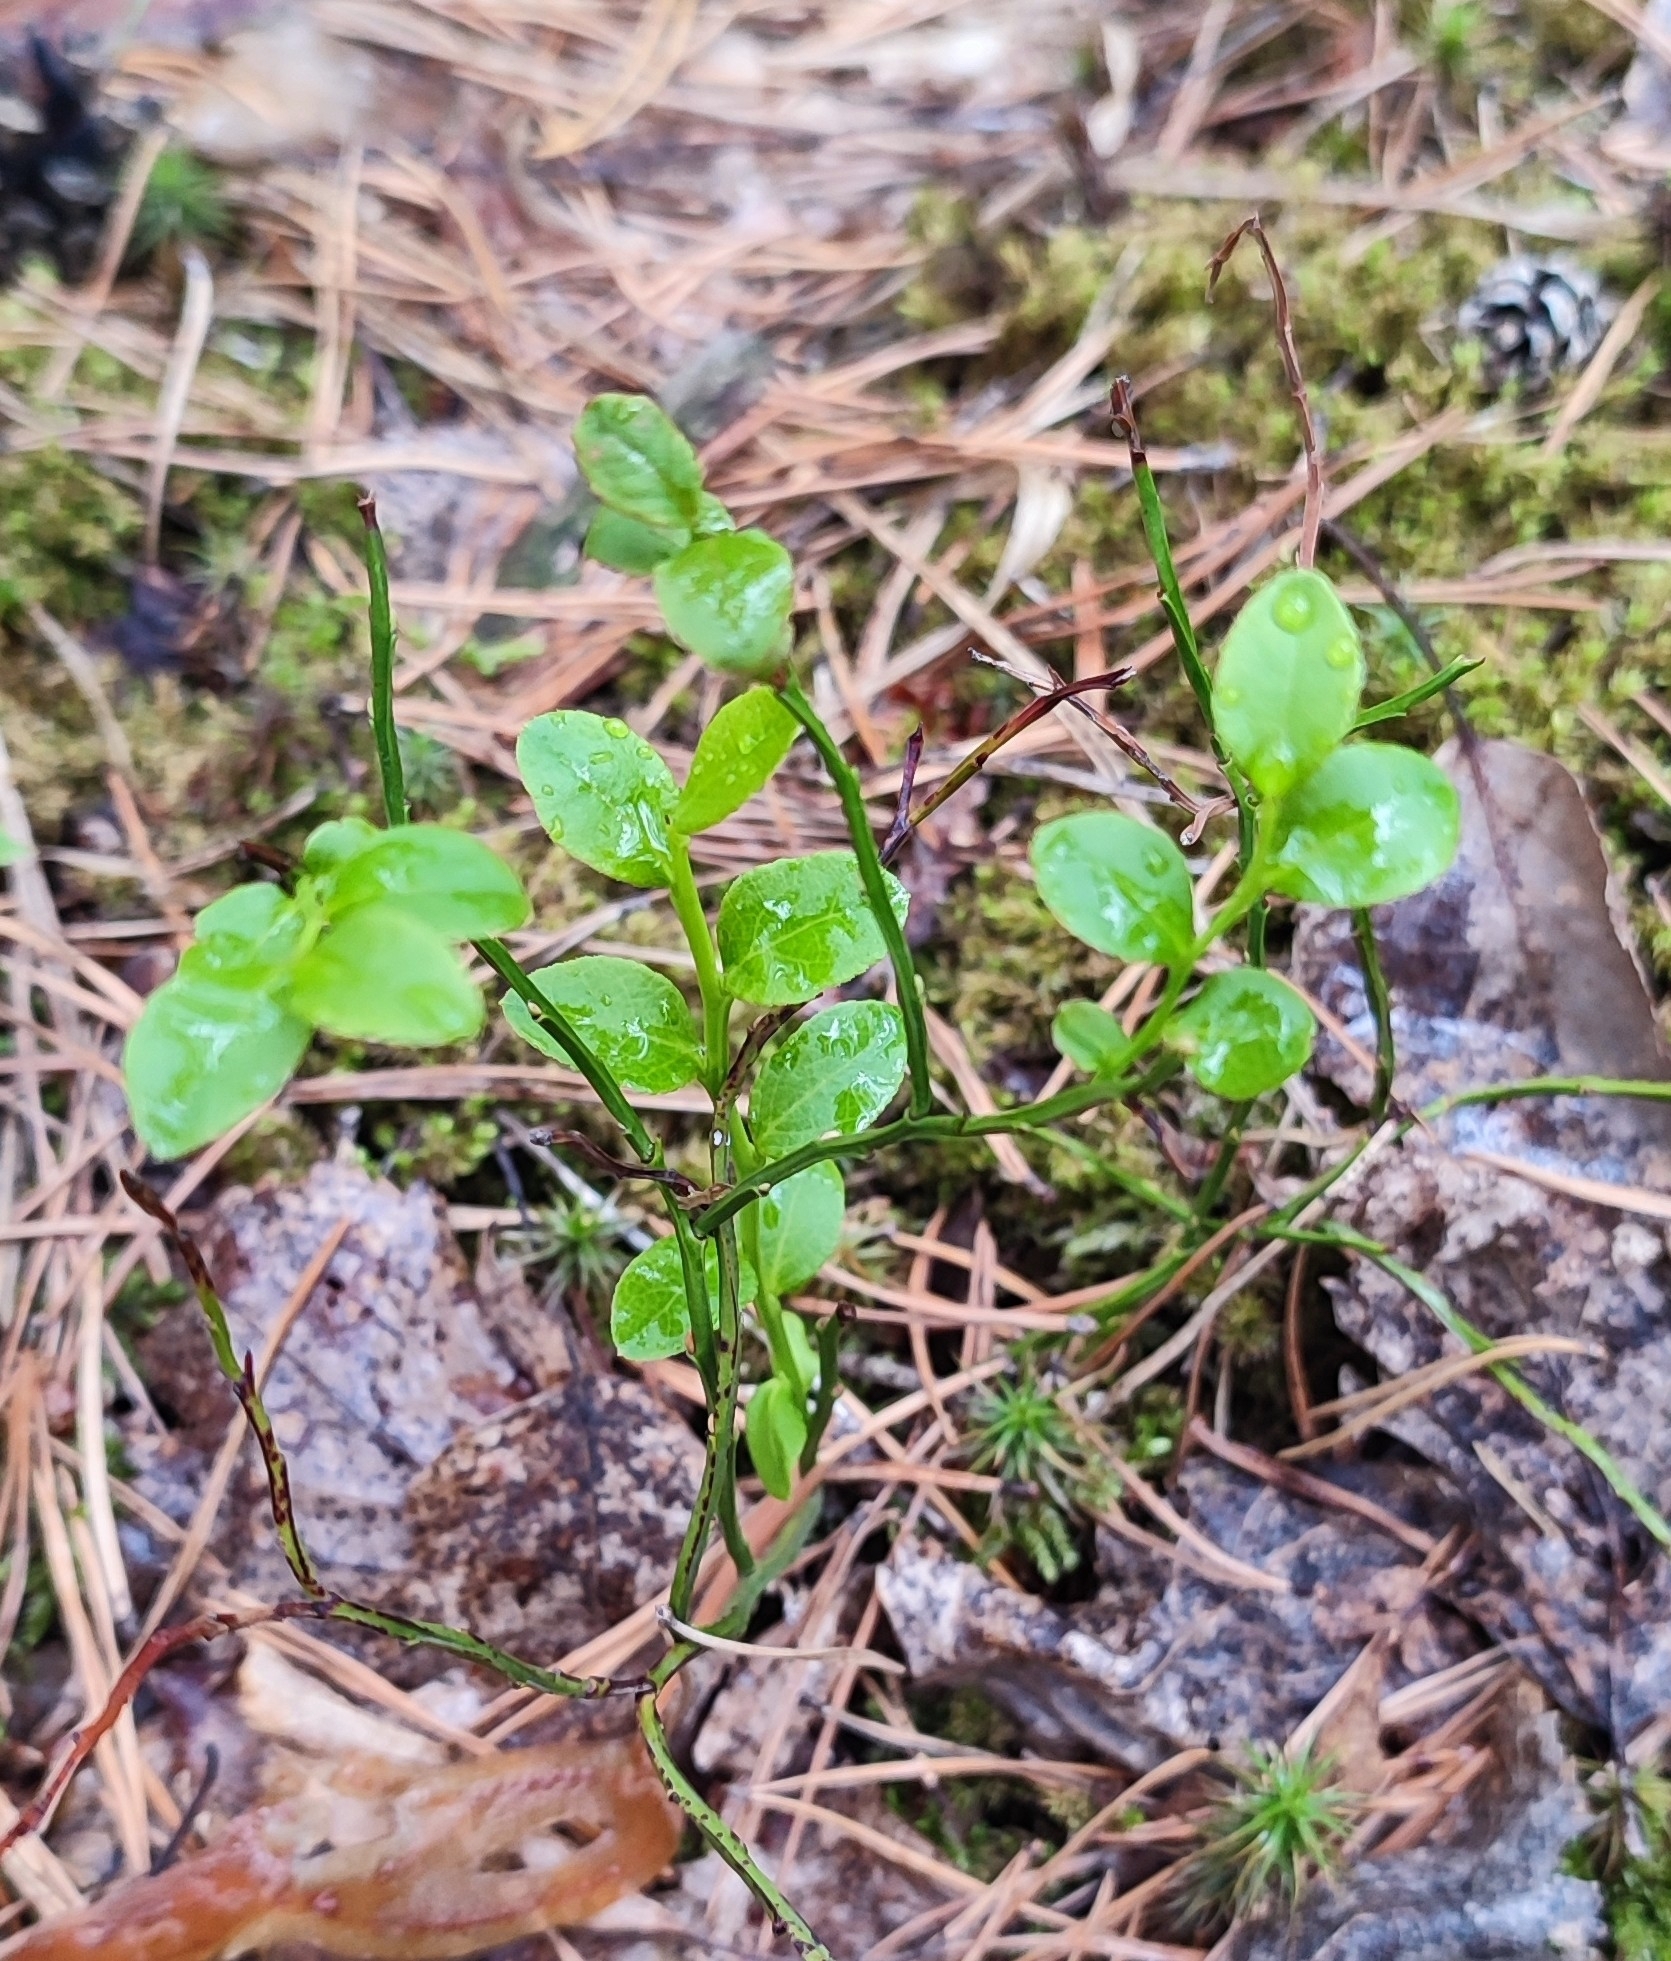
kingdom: Plantae
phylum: Tracheophyta
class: Magnoliopsida
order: Ericales
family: Ericaceae
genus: Vaccinium
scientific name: Vaccinium myrtillus
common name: Bilberry
